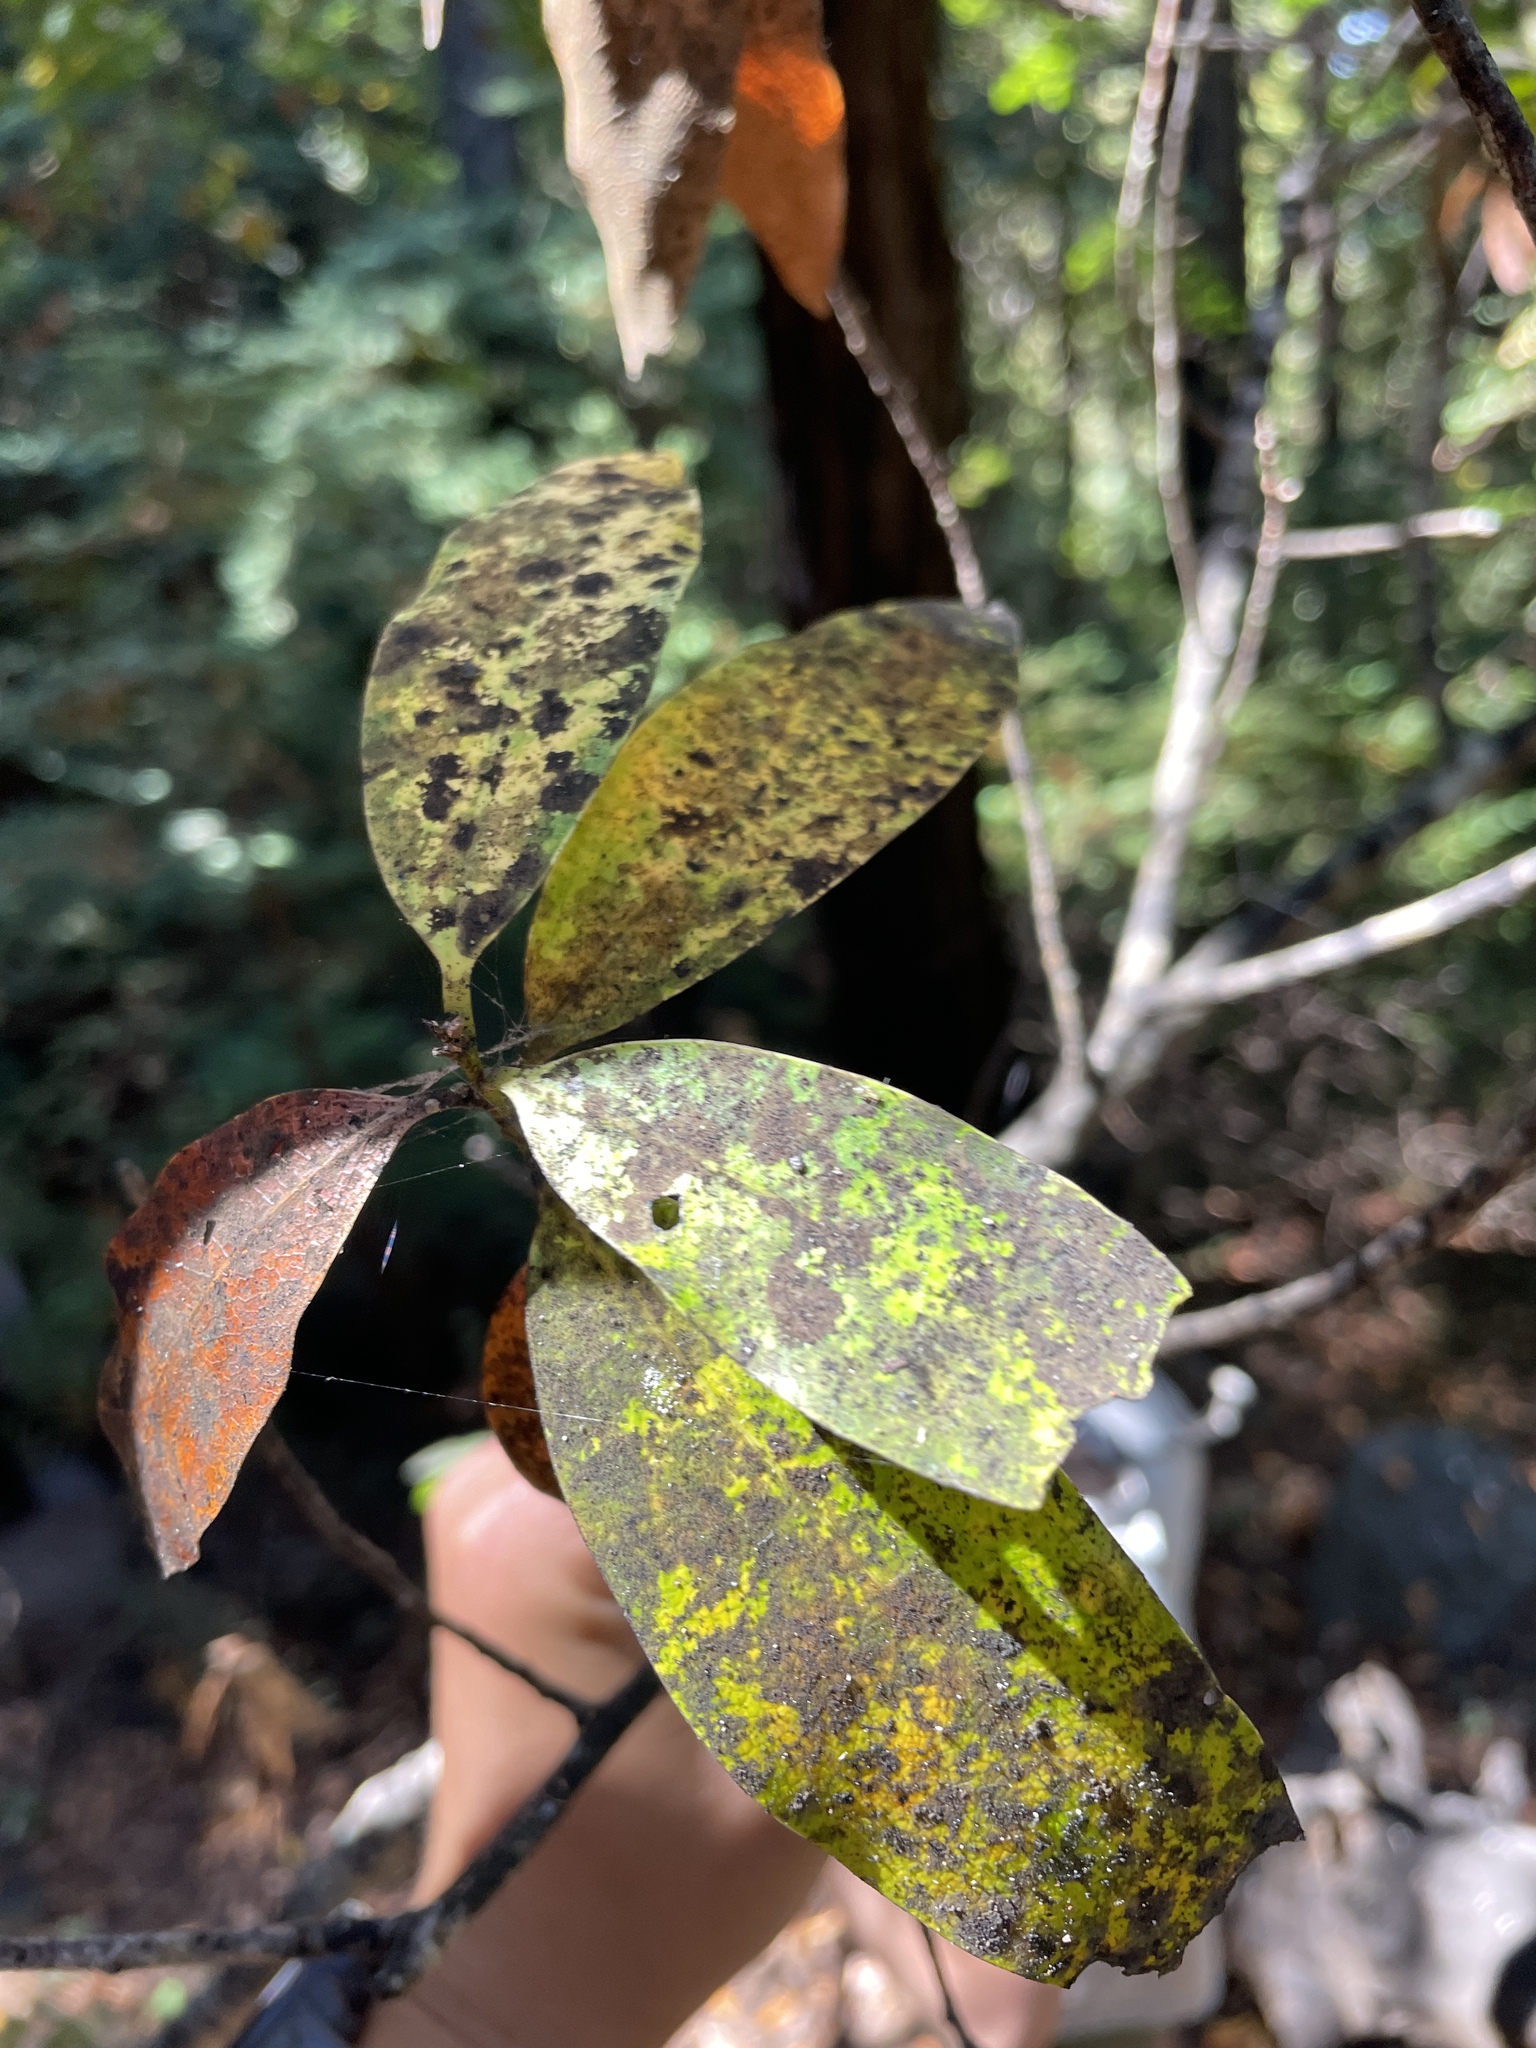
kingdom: Plantae
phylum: Tracheophyta
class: Magnoliopsida
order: Laurales
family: Lauraceae
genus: Umbellularia
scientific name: Umbellularia californica
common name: California bay
